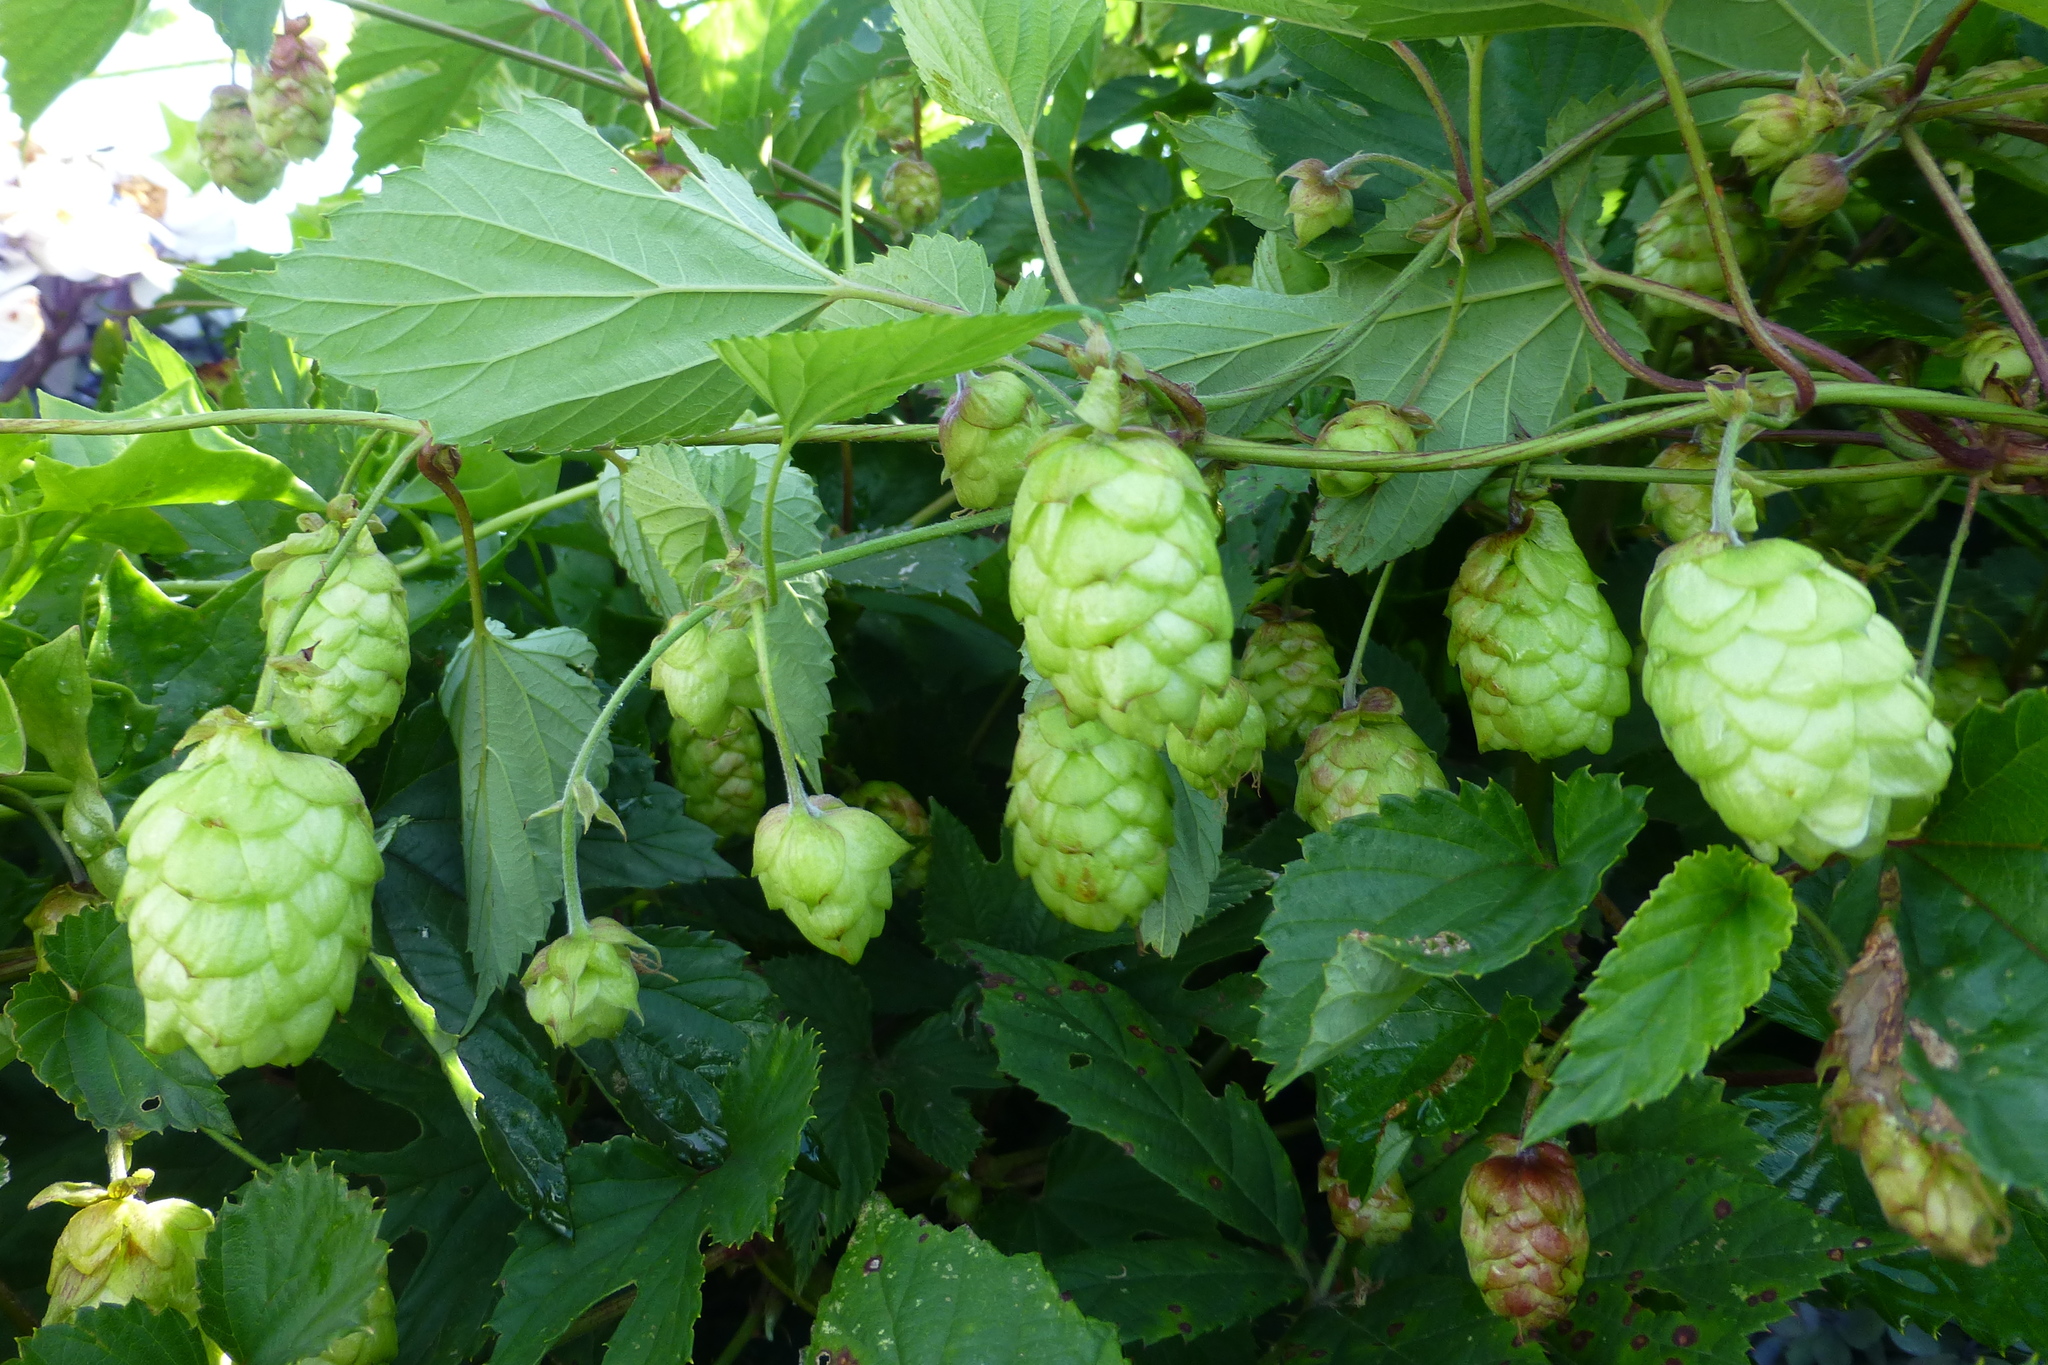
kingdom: Plantae
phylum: Tracheophyta
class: Magnoliopsida
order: Rosales
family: Cannabaceae
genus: Humulus
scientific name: Humulus lupulus
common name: Hop
